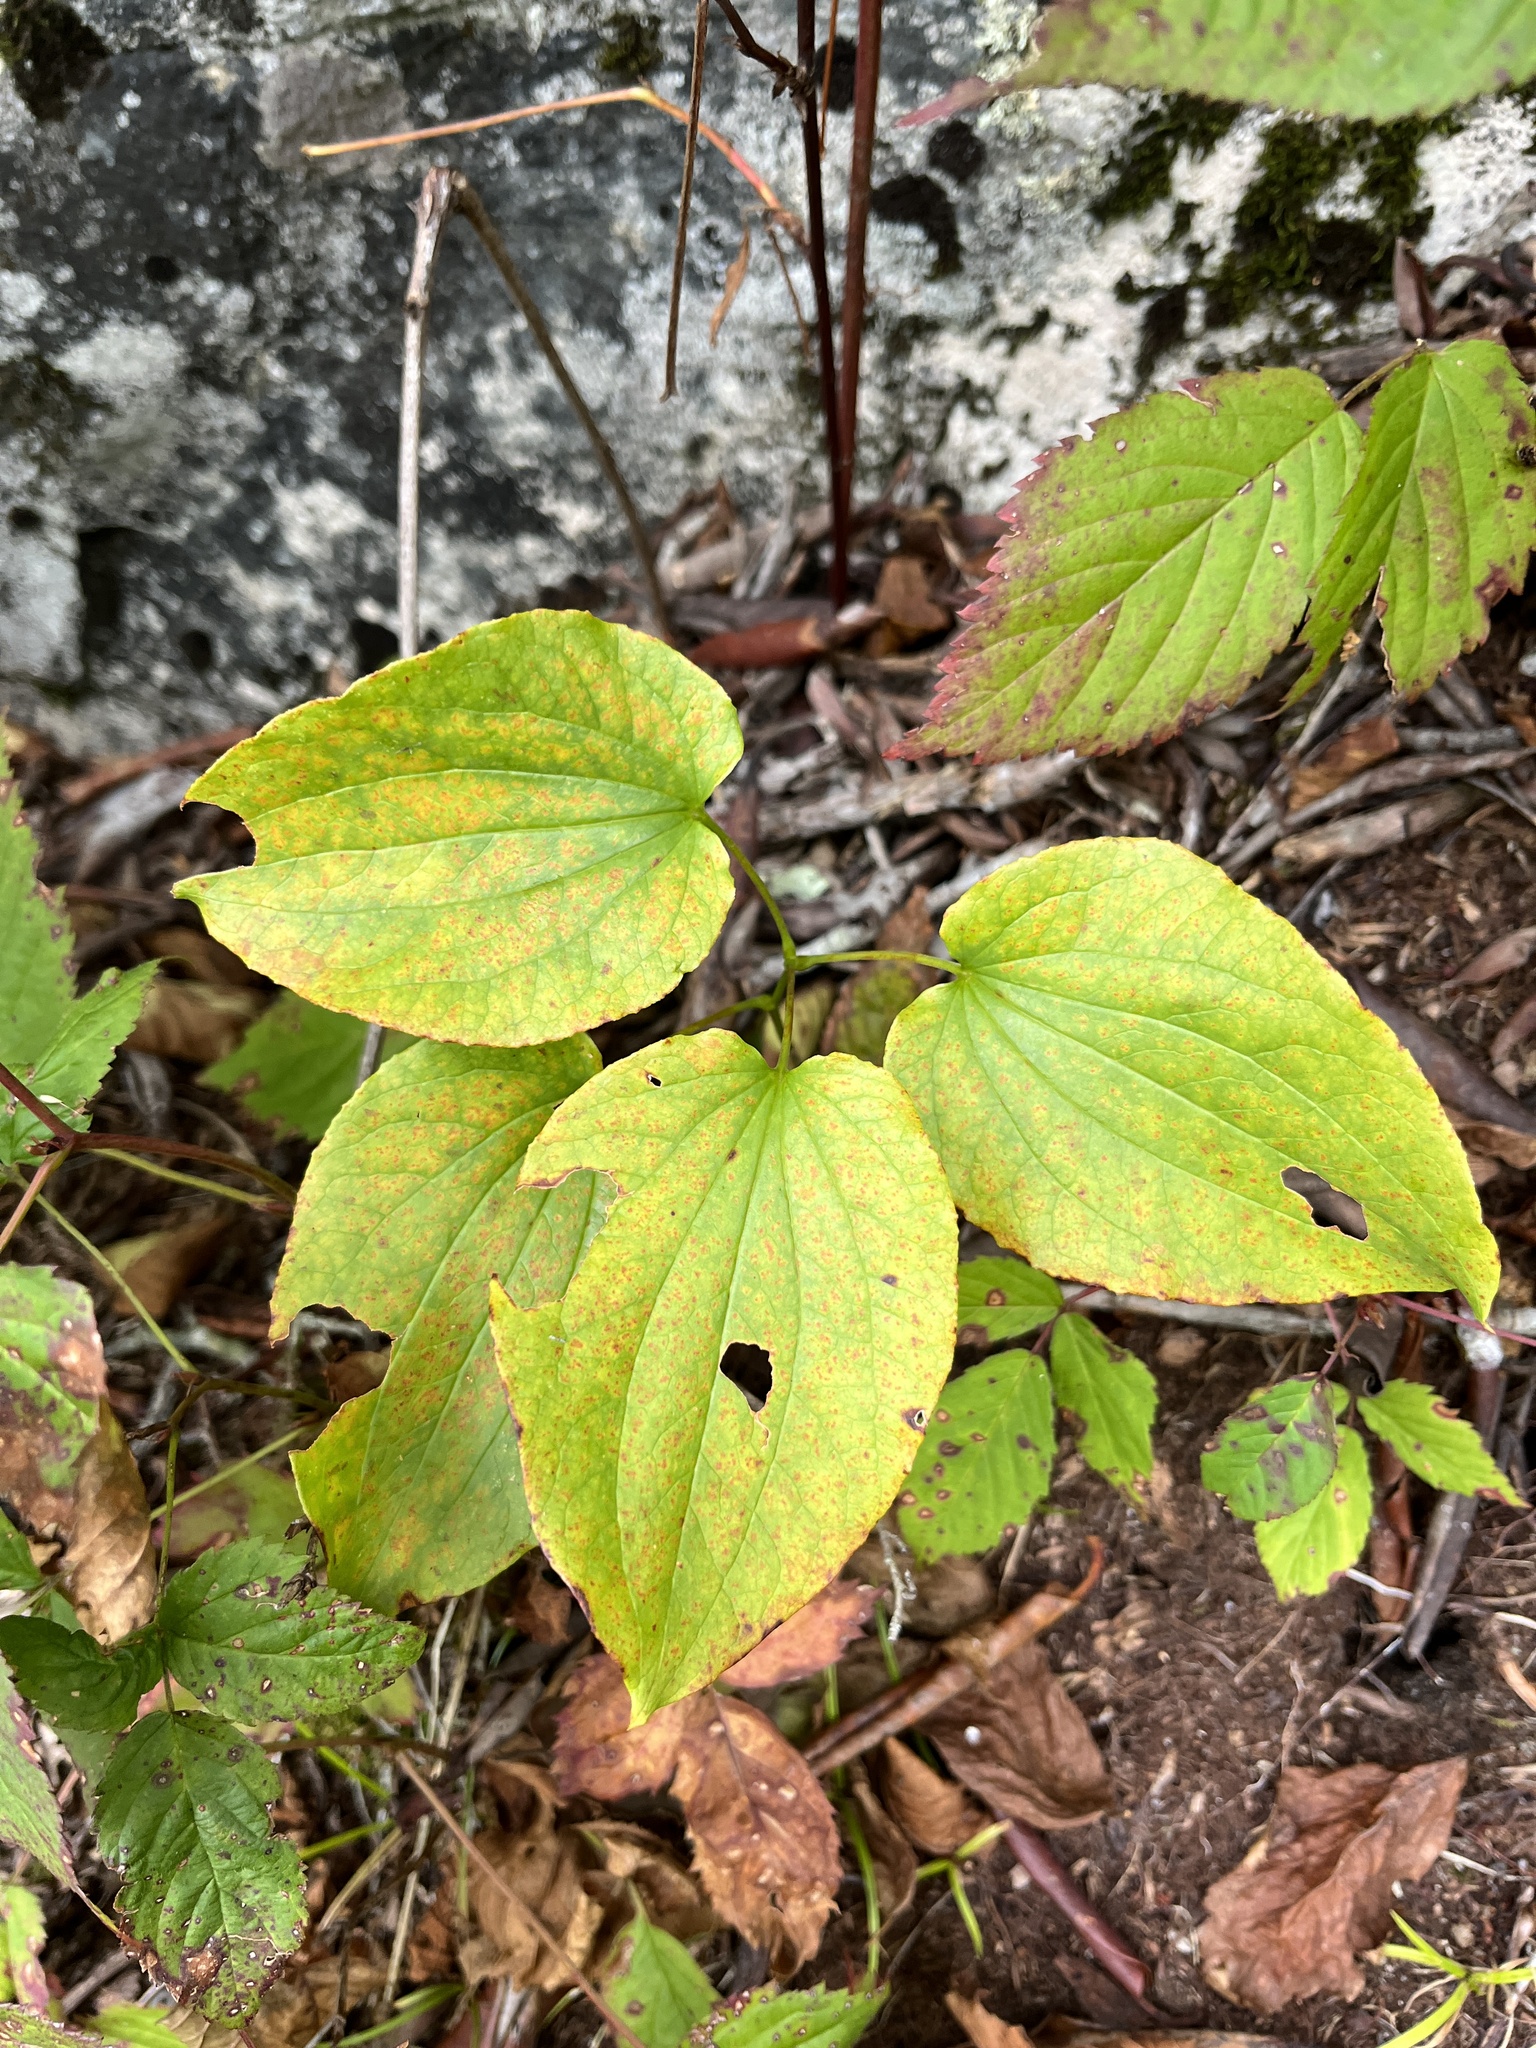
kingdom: Plantae
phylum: Tracheophyta
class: Liliopsida
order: Liliales
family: Smilacaceae
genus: Smilax
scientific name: Smilax herbacea
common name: Jacob's-ladder
